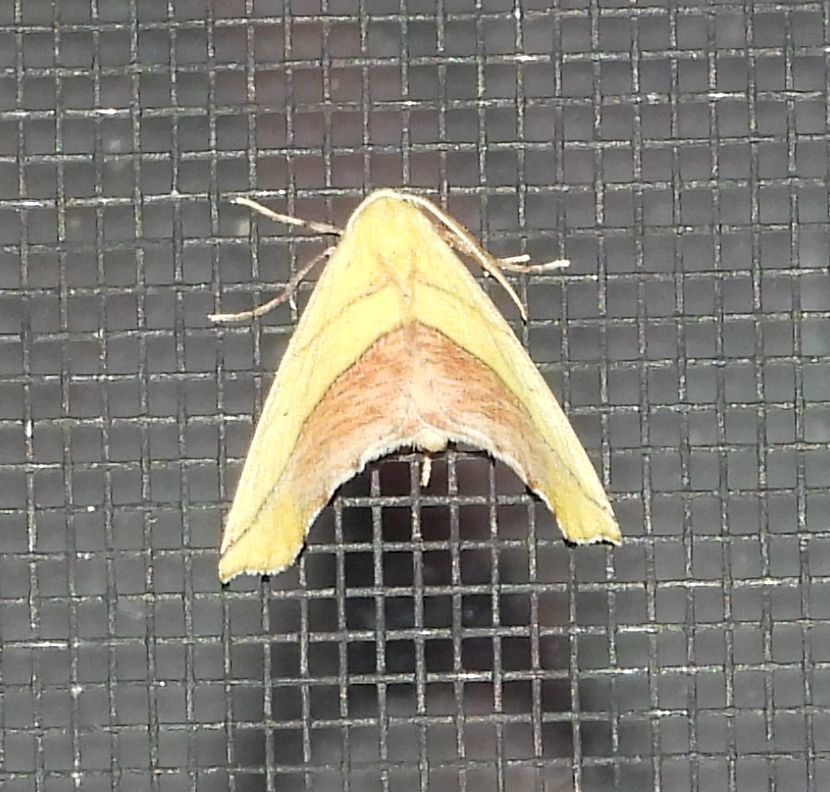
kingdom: Animalia
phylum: Arthropoda
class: Insecta
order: Lepidoptera
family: Geometridae
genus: Sicya
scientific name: Sicya macularia
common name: Sharp-lined yellow
